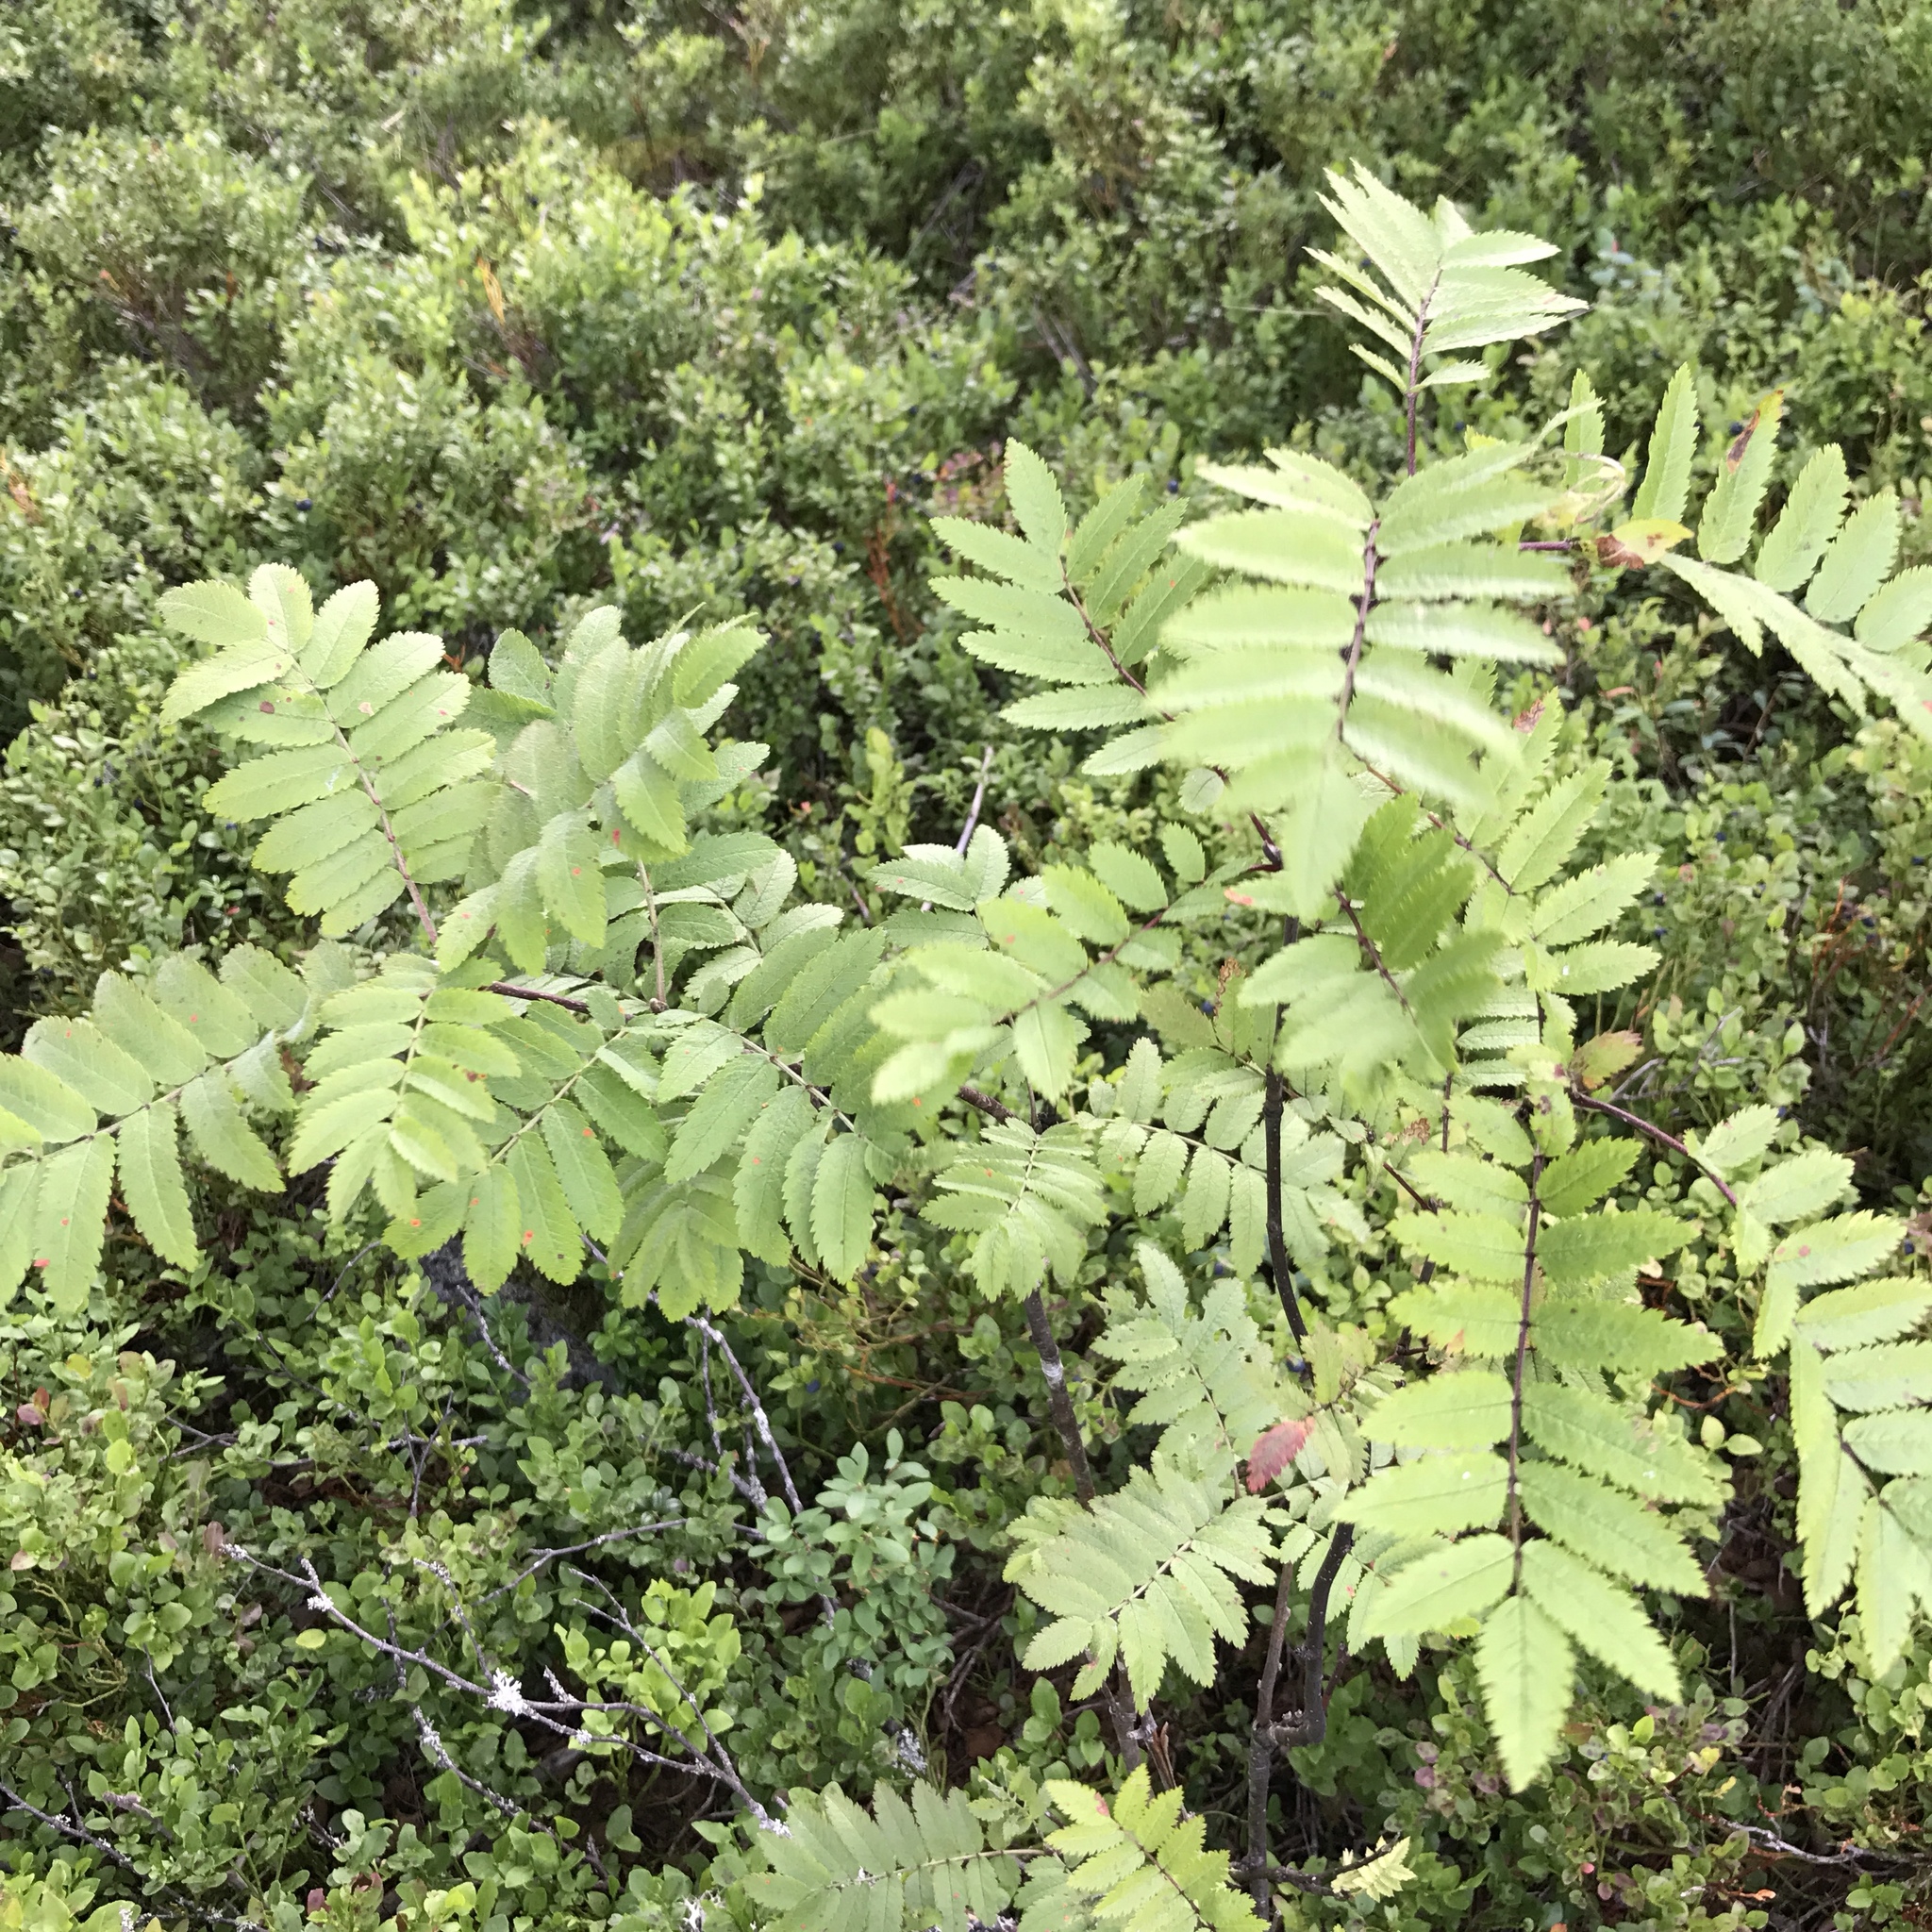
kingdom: Plantae
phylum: Tracheophyta
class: Magnoliopsida
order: Rosales
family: Rosaceae
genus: Sorbus
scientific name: Sorbus aucuparia
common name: Rowan
